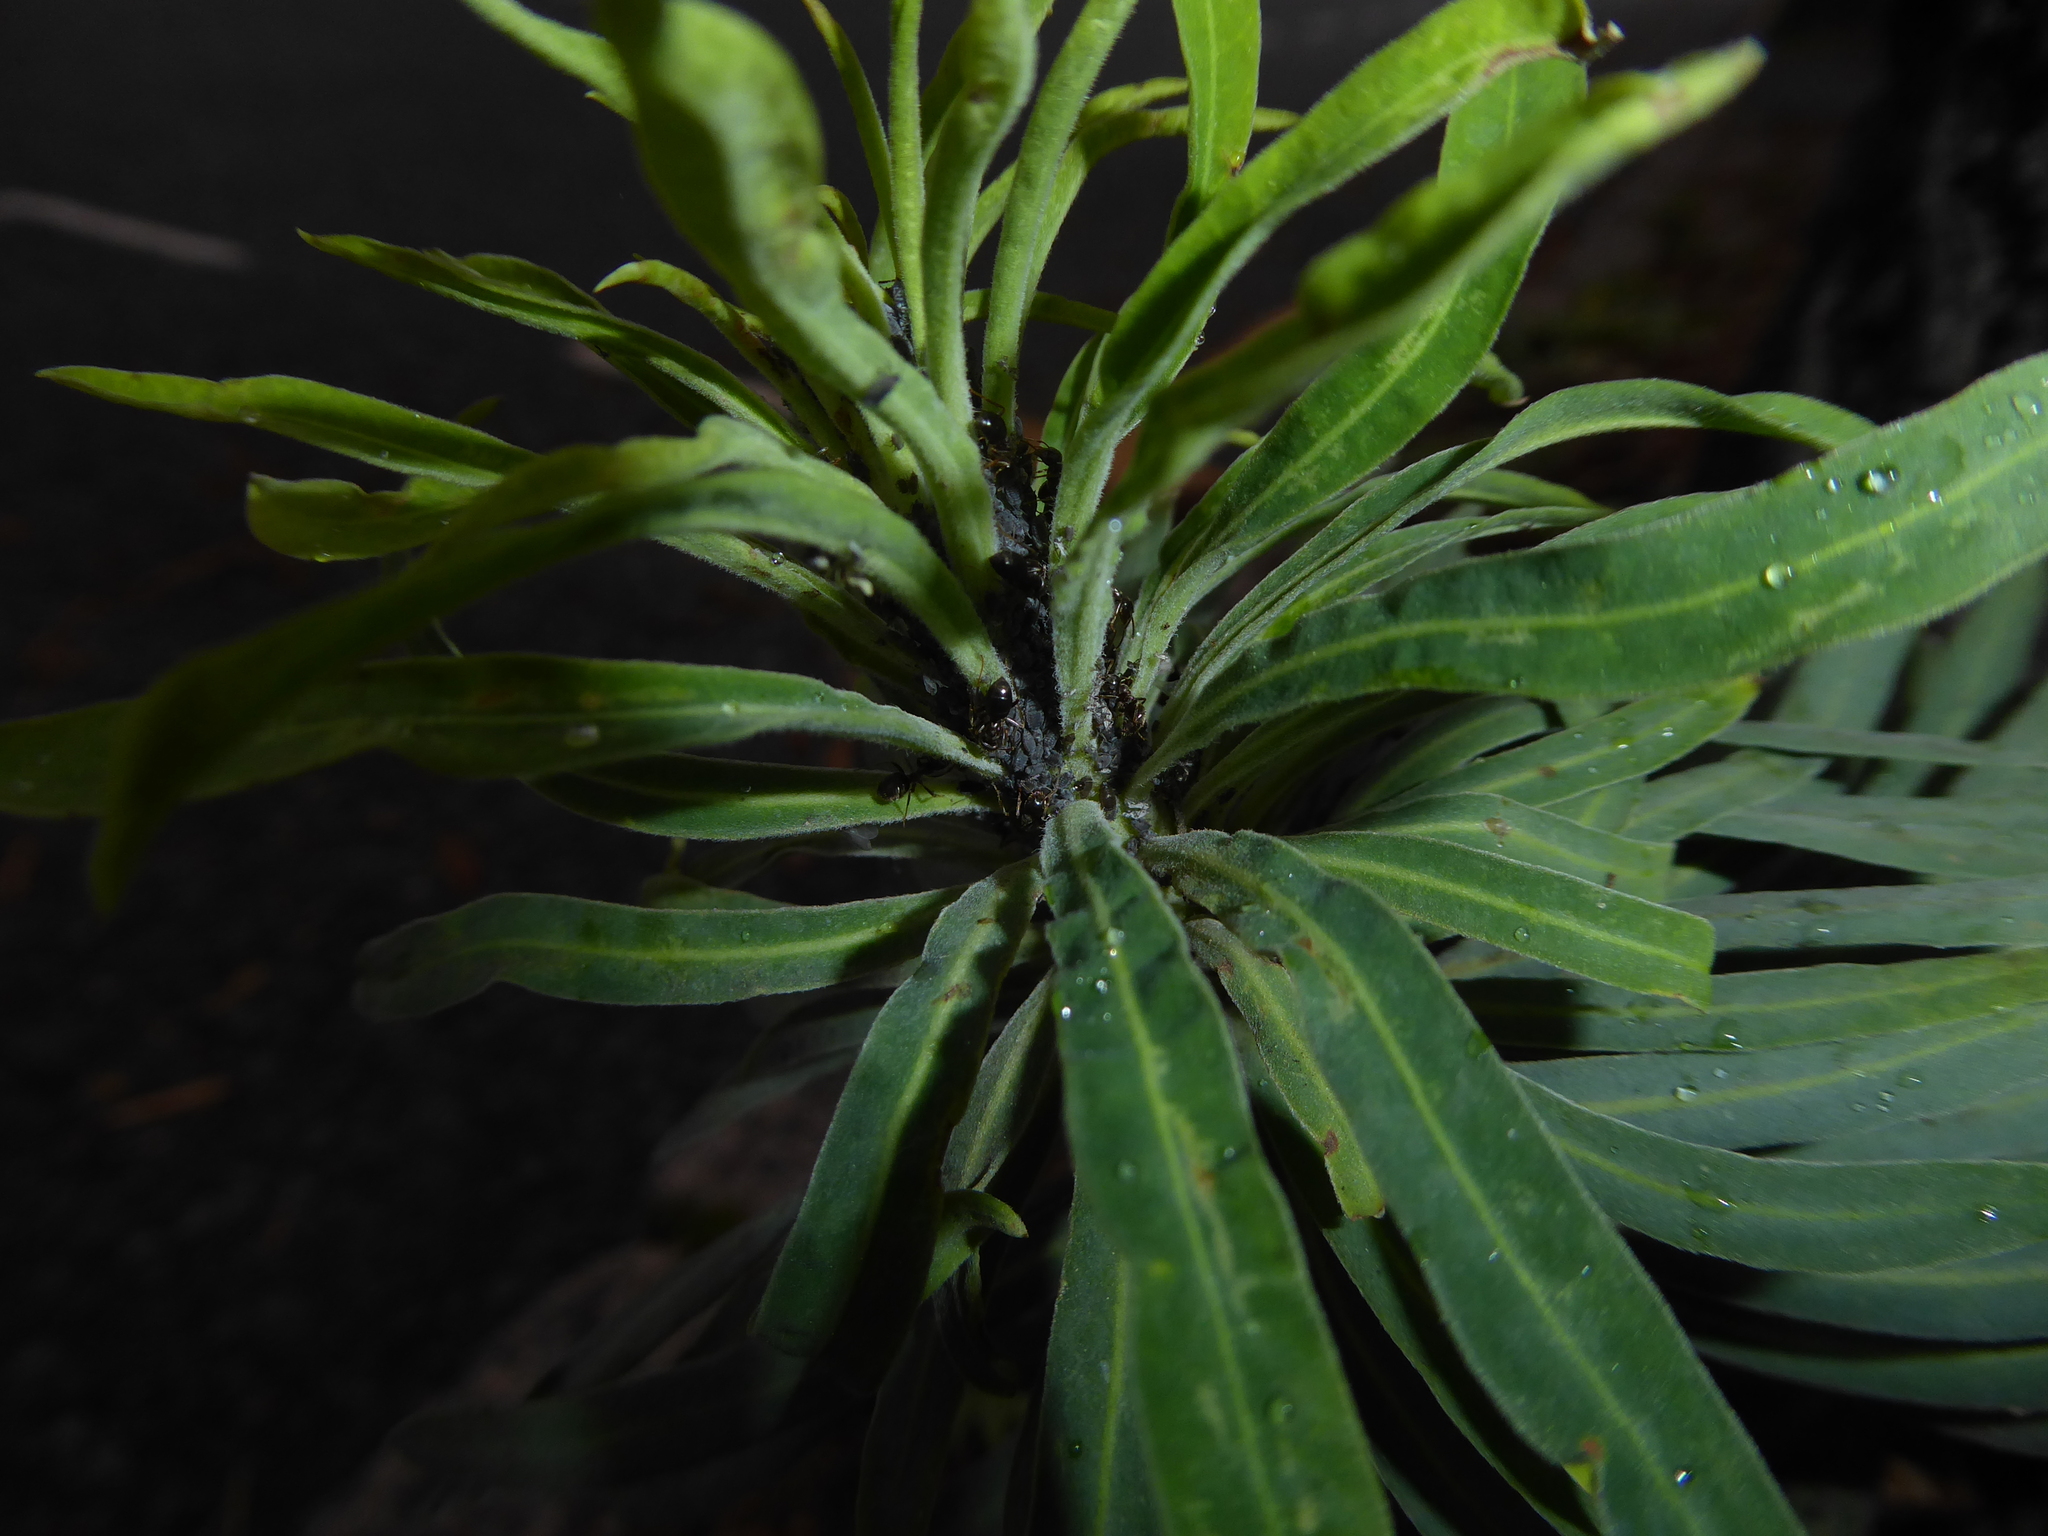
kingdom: Plantae
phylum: Tracheophyta
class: Magnoliopsida
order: Malpighiales
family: Euphorbiaceae
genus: Euphorbia
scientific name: Euphorbia characias
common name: Mediterranean spurge
